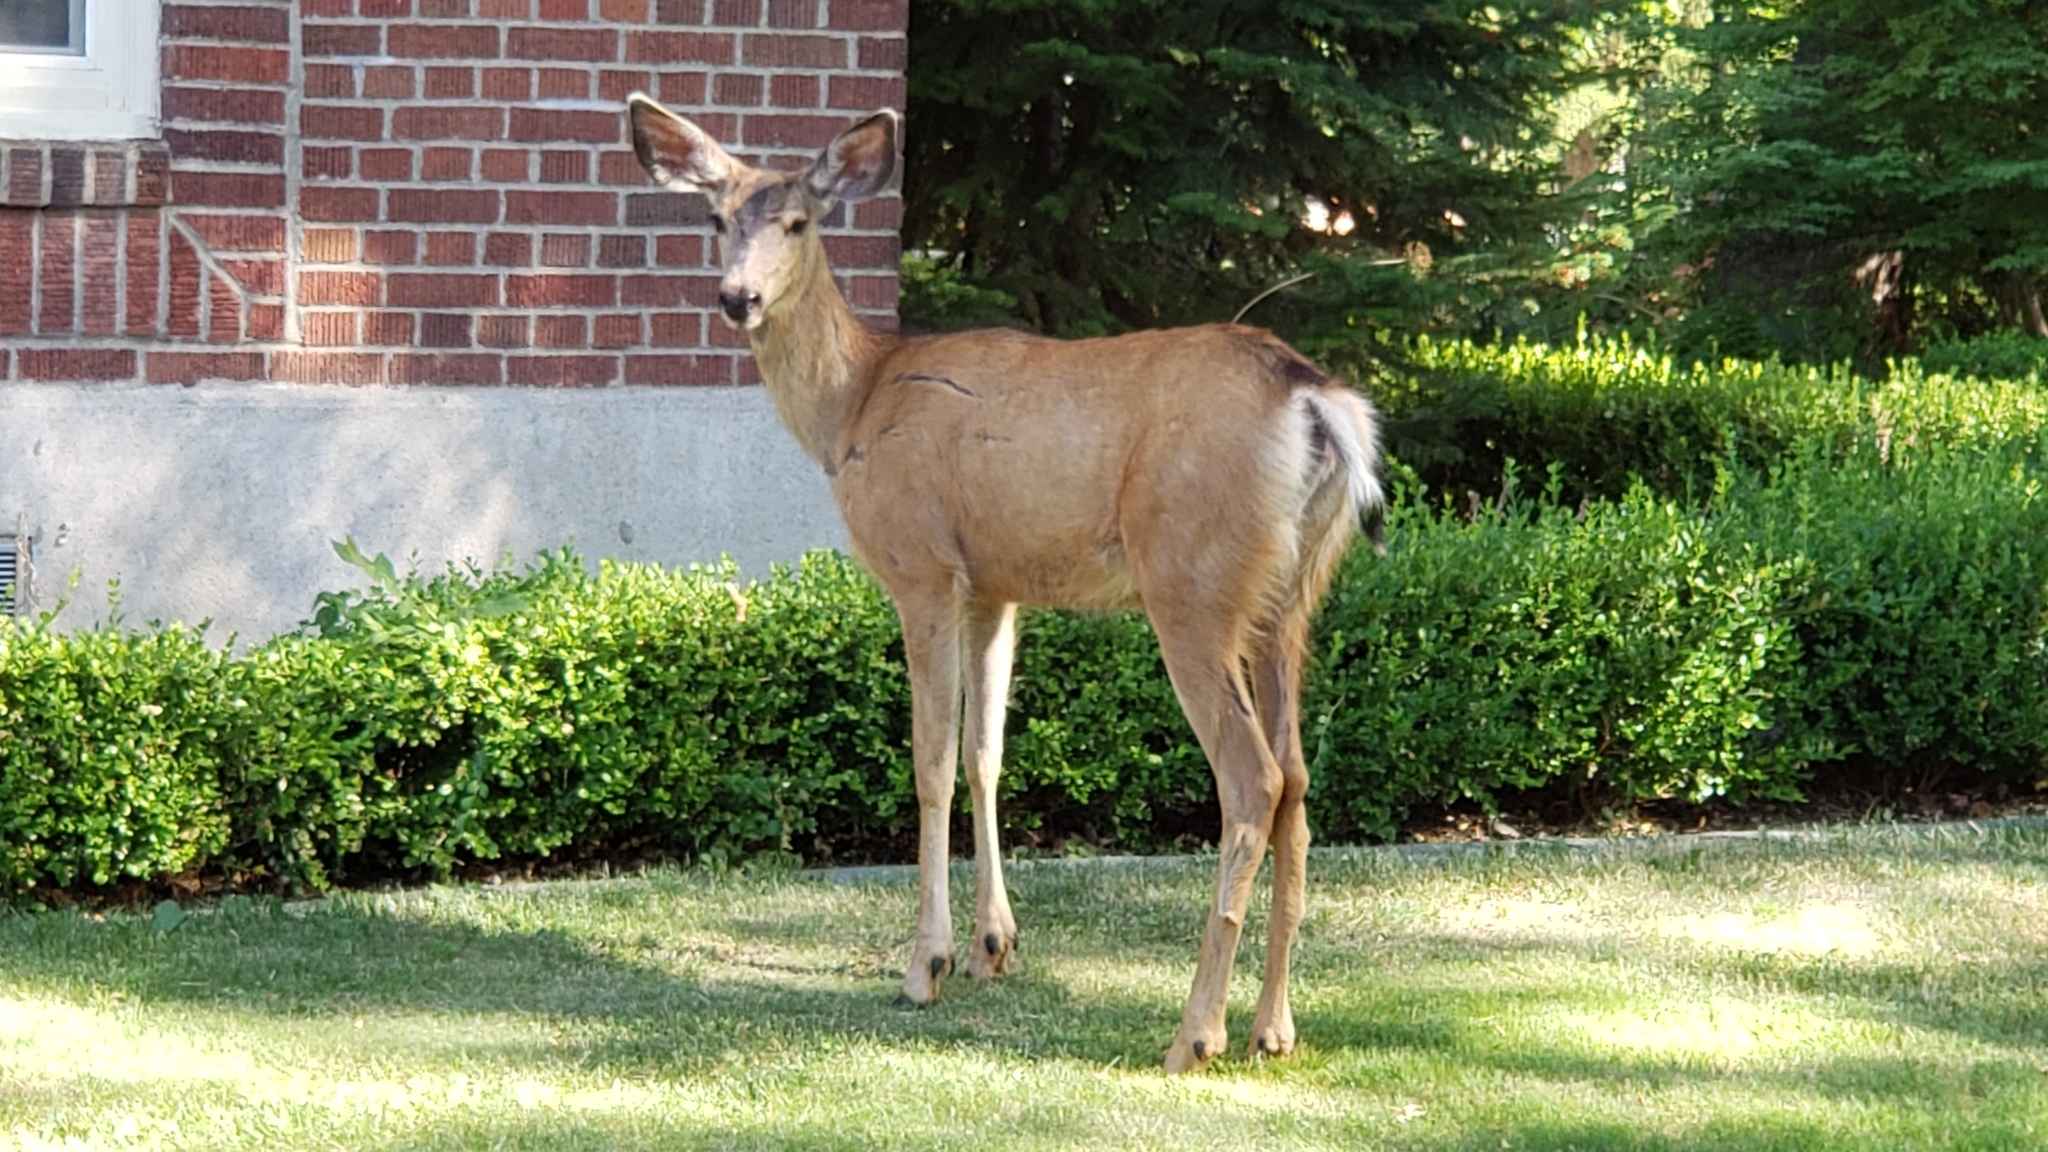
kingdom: Animalia
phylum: Chordata
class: Mammalia
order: Artiodactyla
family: Cervidae
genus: Odocoileus
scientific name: Odocoileus hemionus
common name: Mule deer
